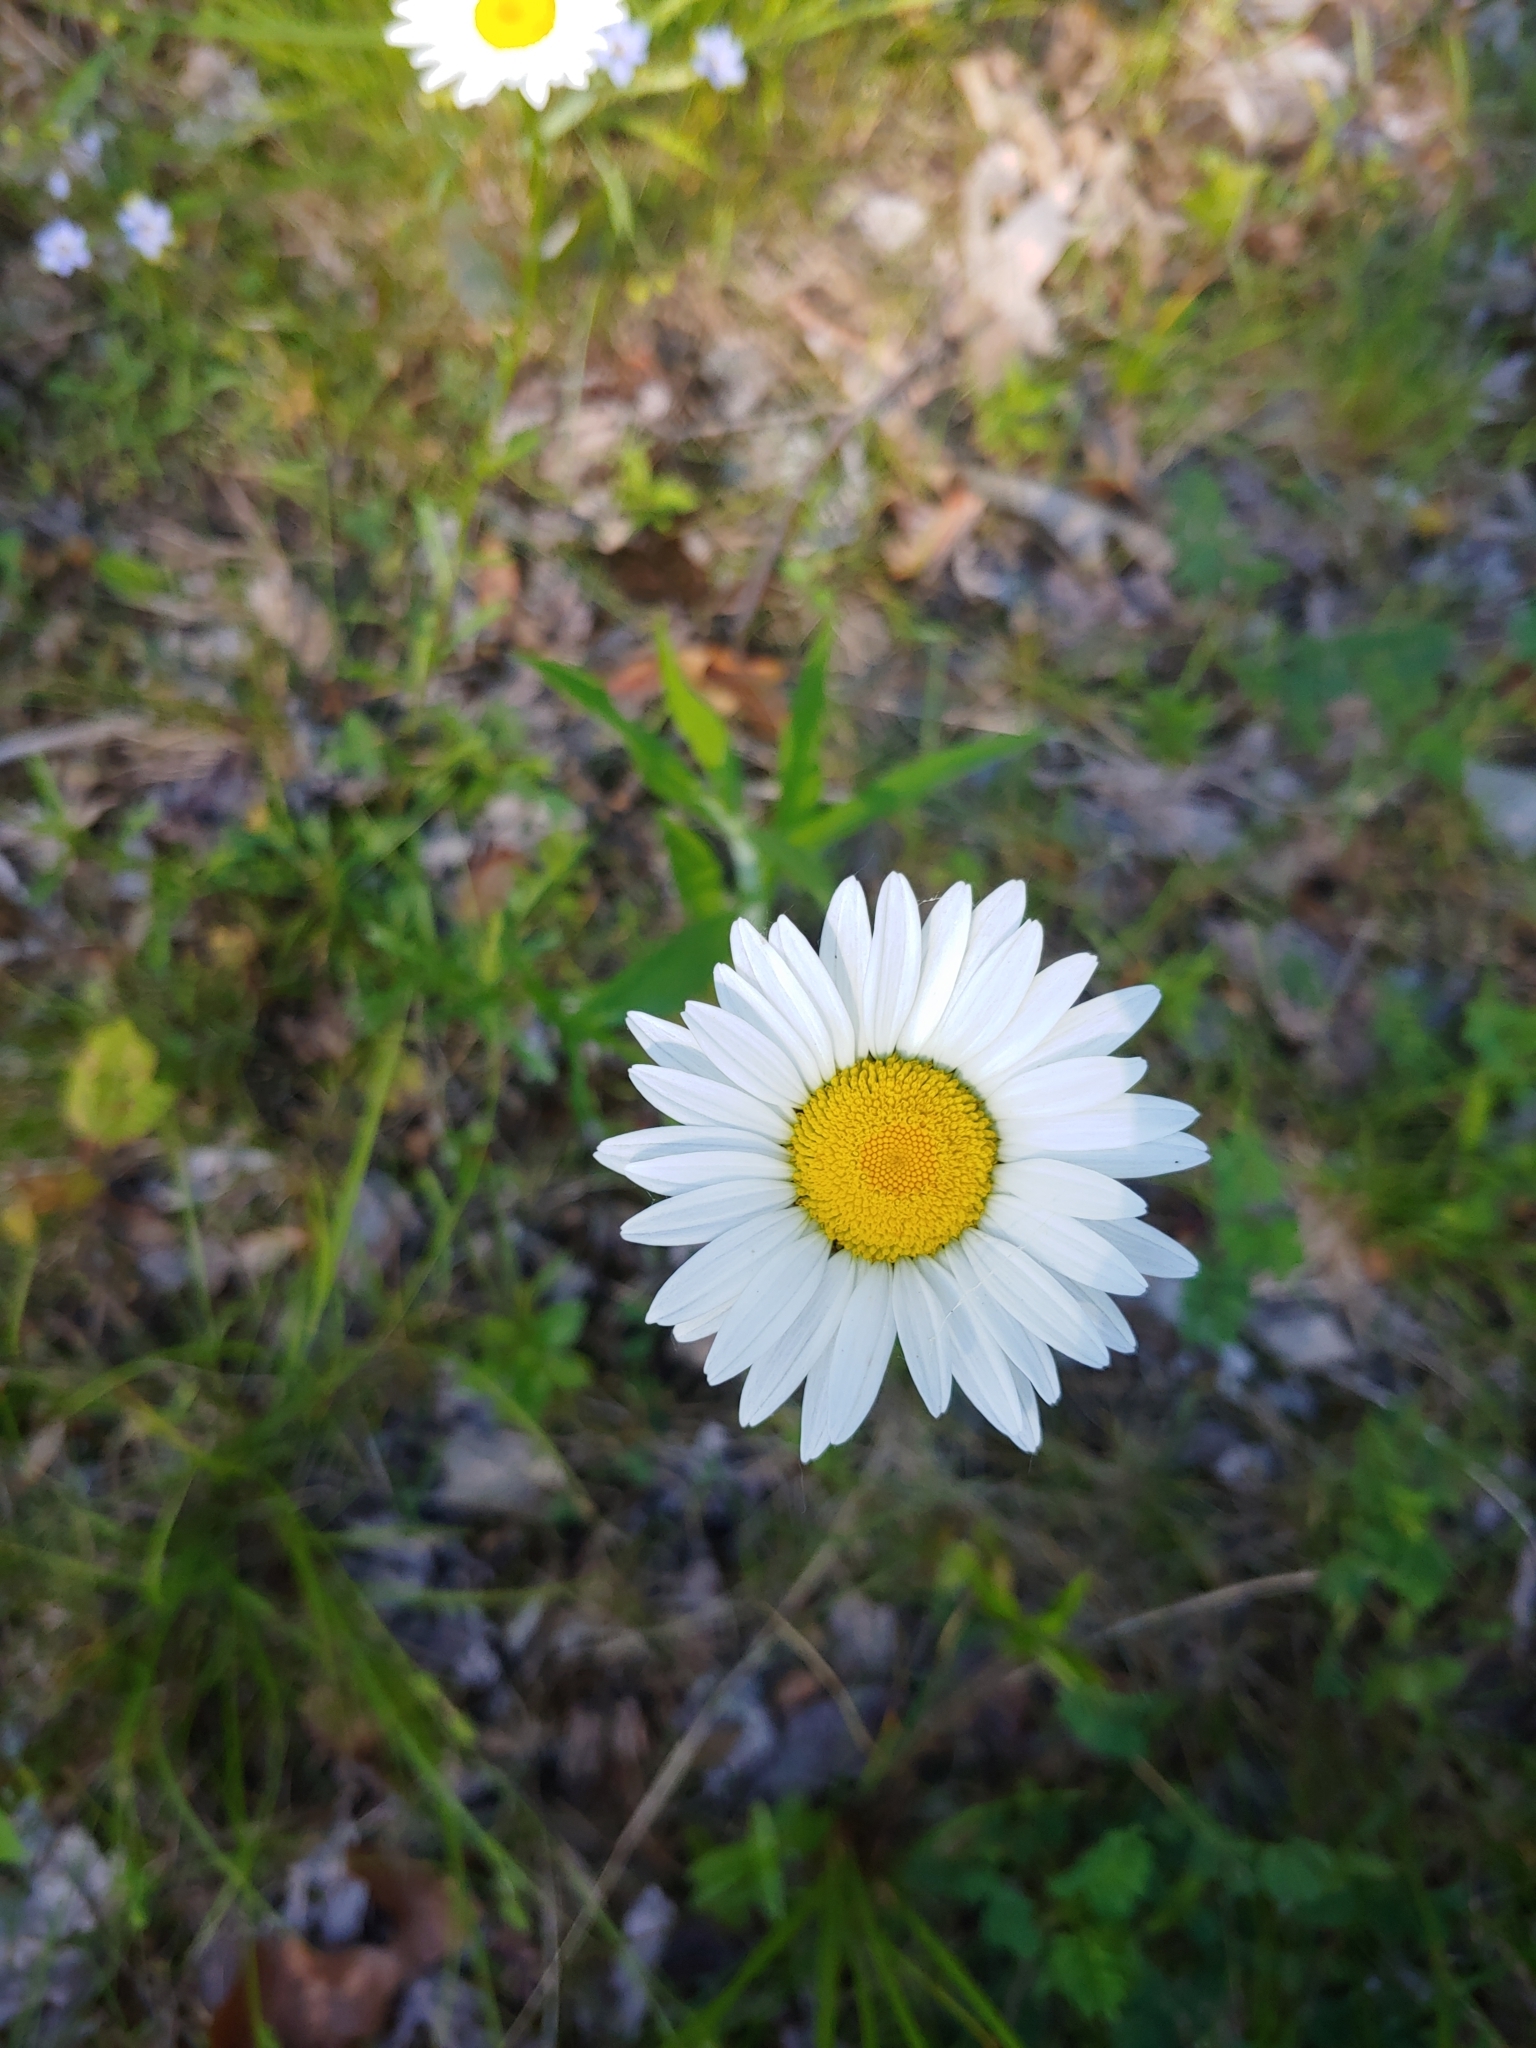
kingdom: Plantae
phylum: Tracheophyta
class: Magnoliopsida
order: Asterales
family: Asteraceae
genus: Leucanthemum
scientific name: Leucanthemum vulgare
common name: Oxeye daisy
